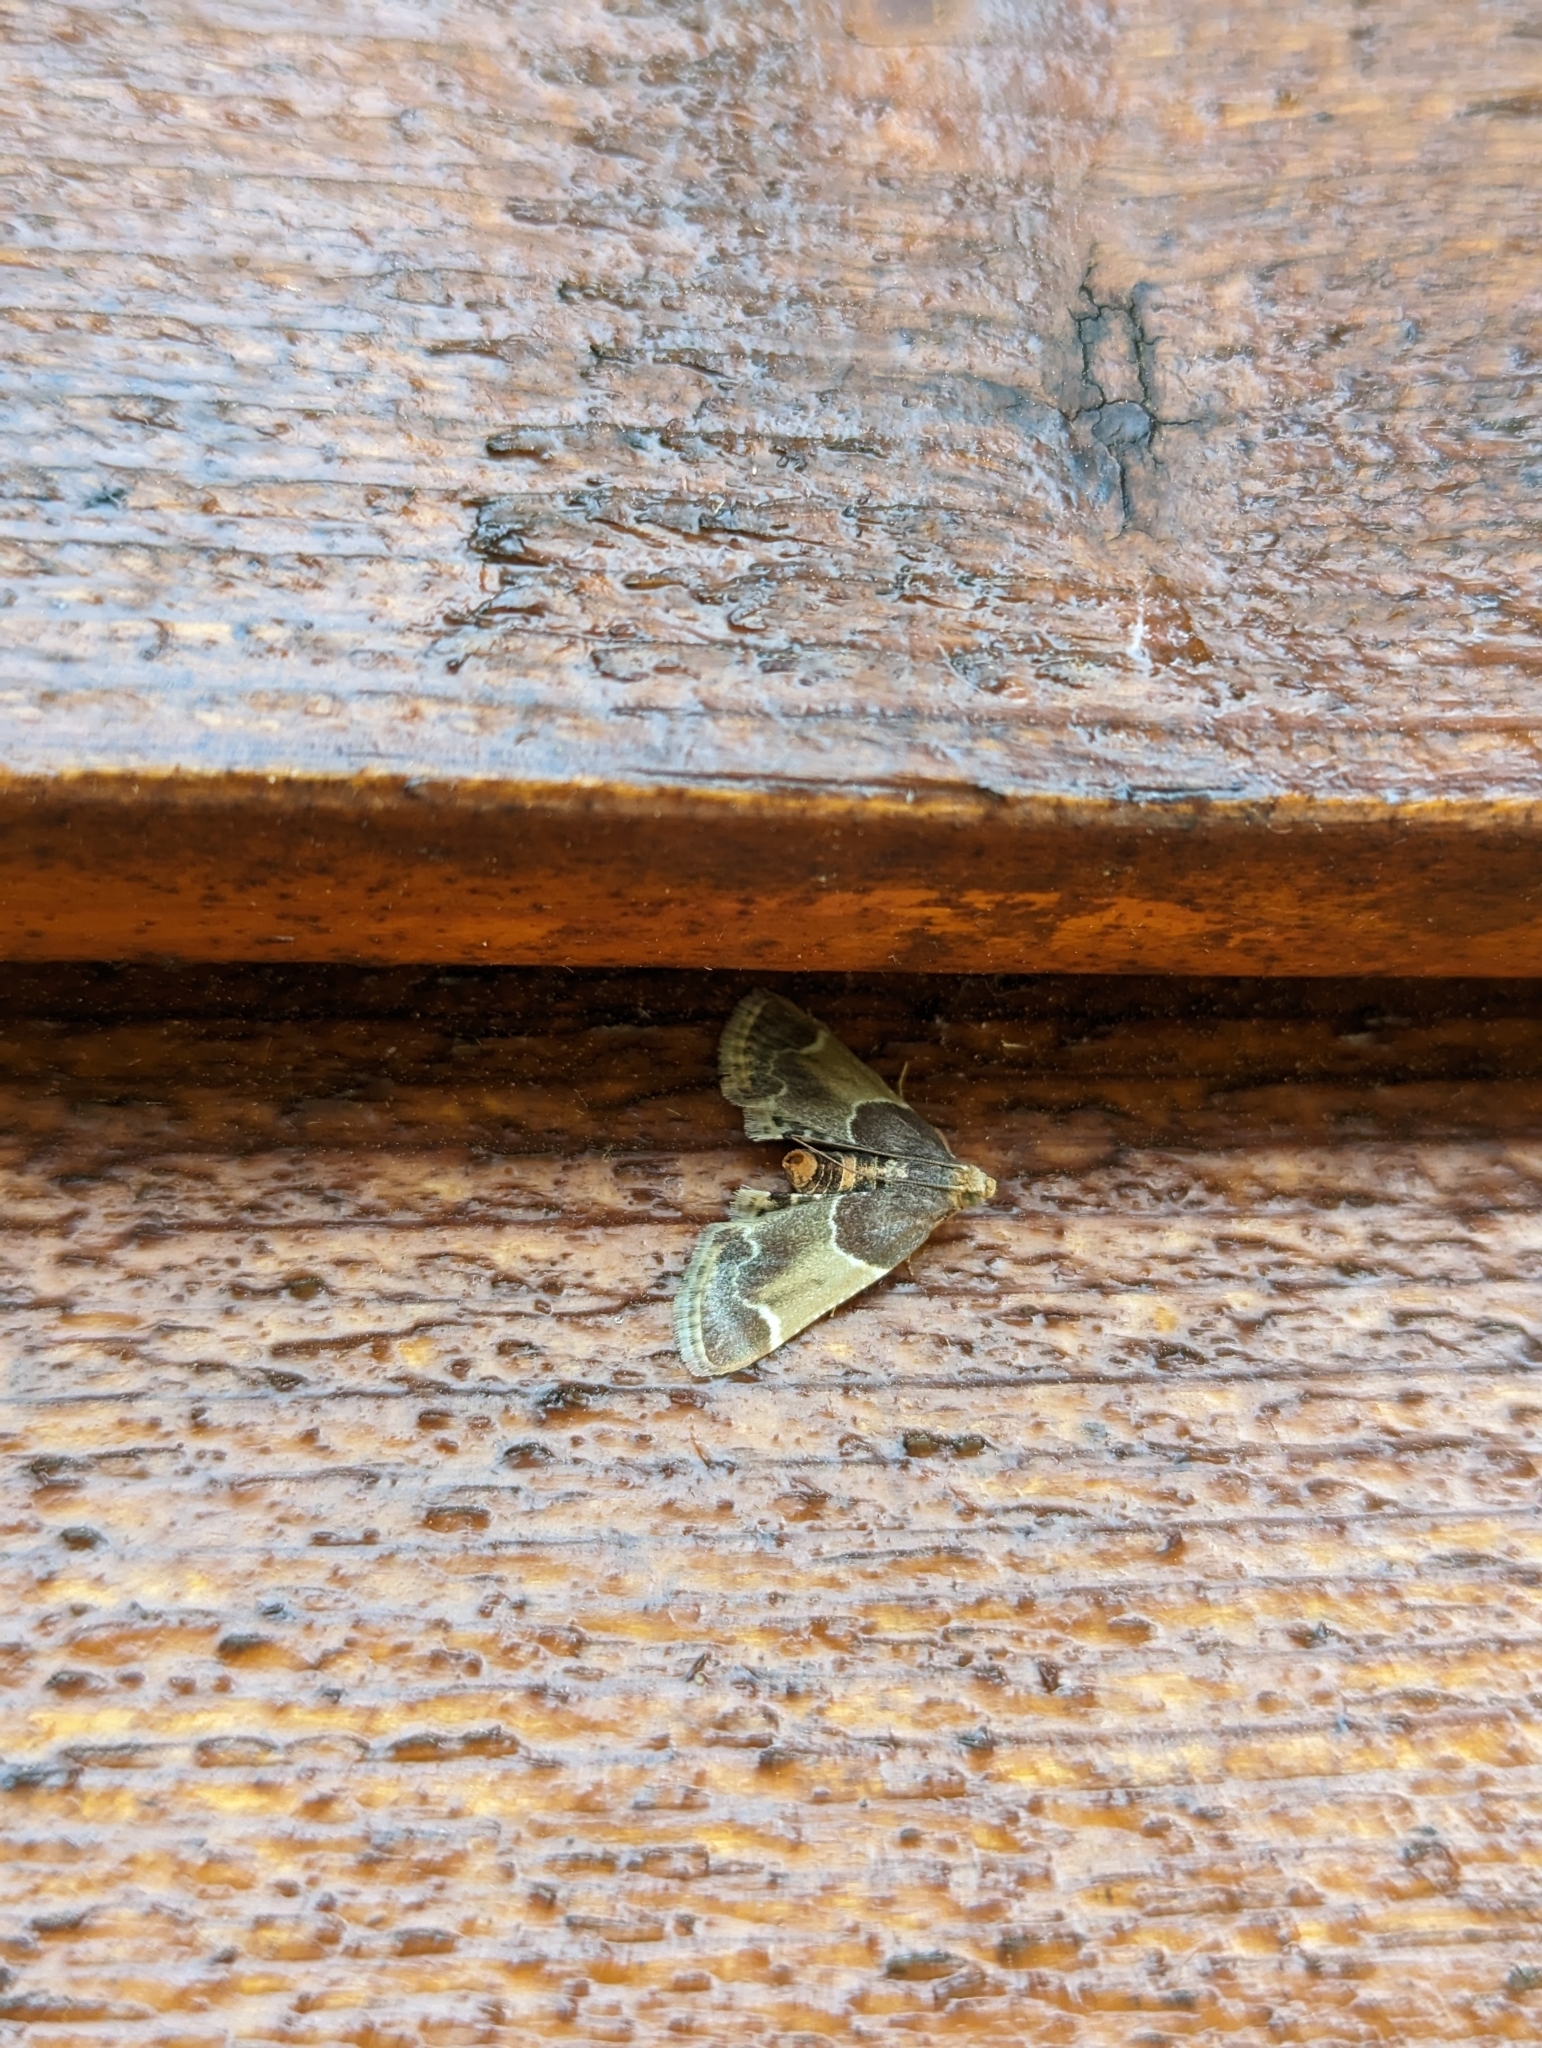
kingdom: Animalia
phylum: Arthropoda
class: Insecta
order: Lepidoptera
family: Pyralidae
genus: Pyralis
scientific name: Pyralis farinalis
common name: Meal moth
